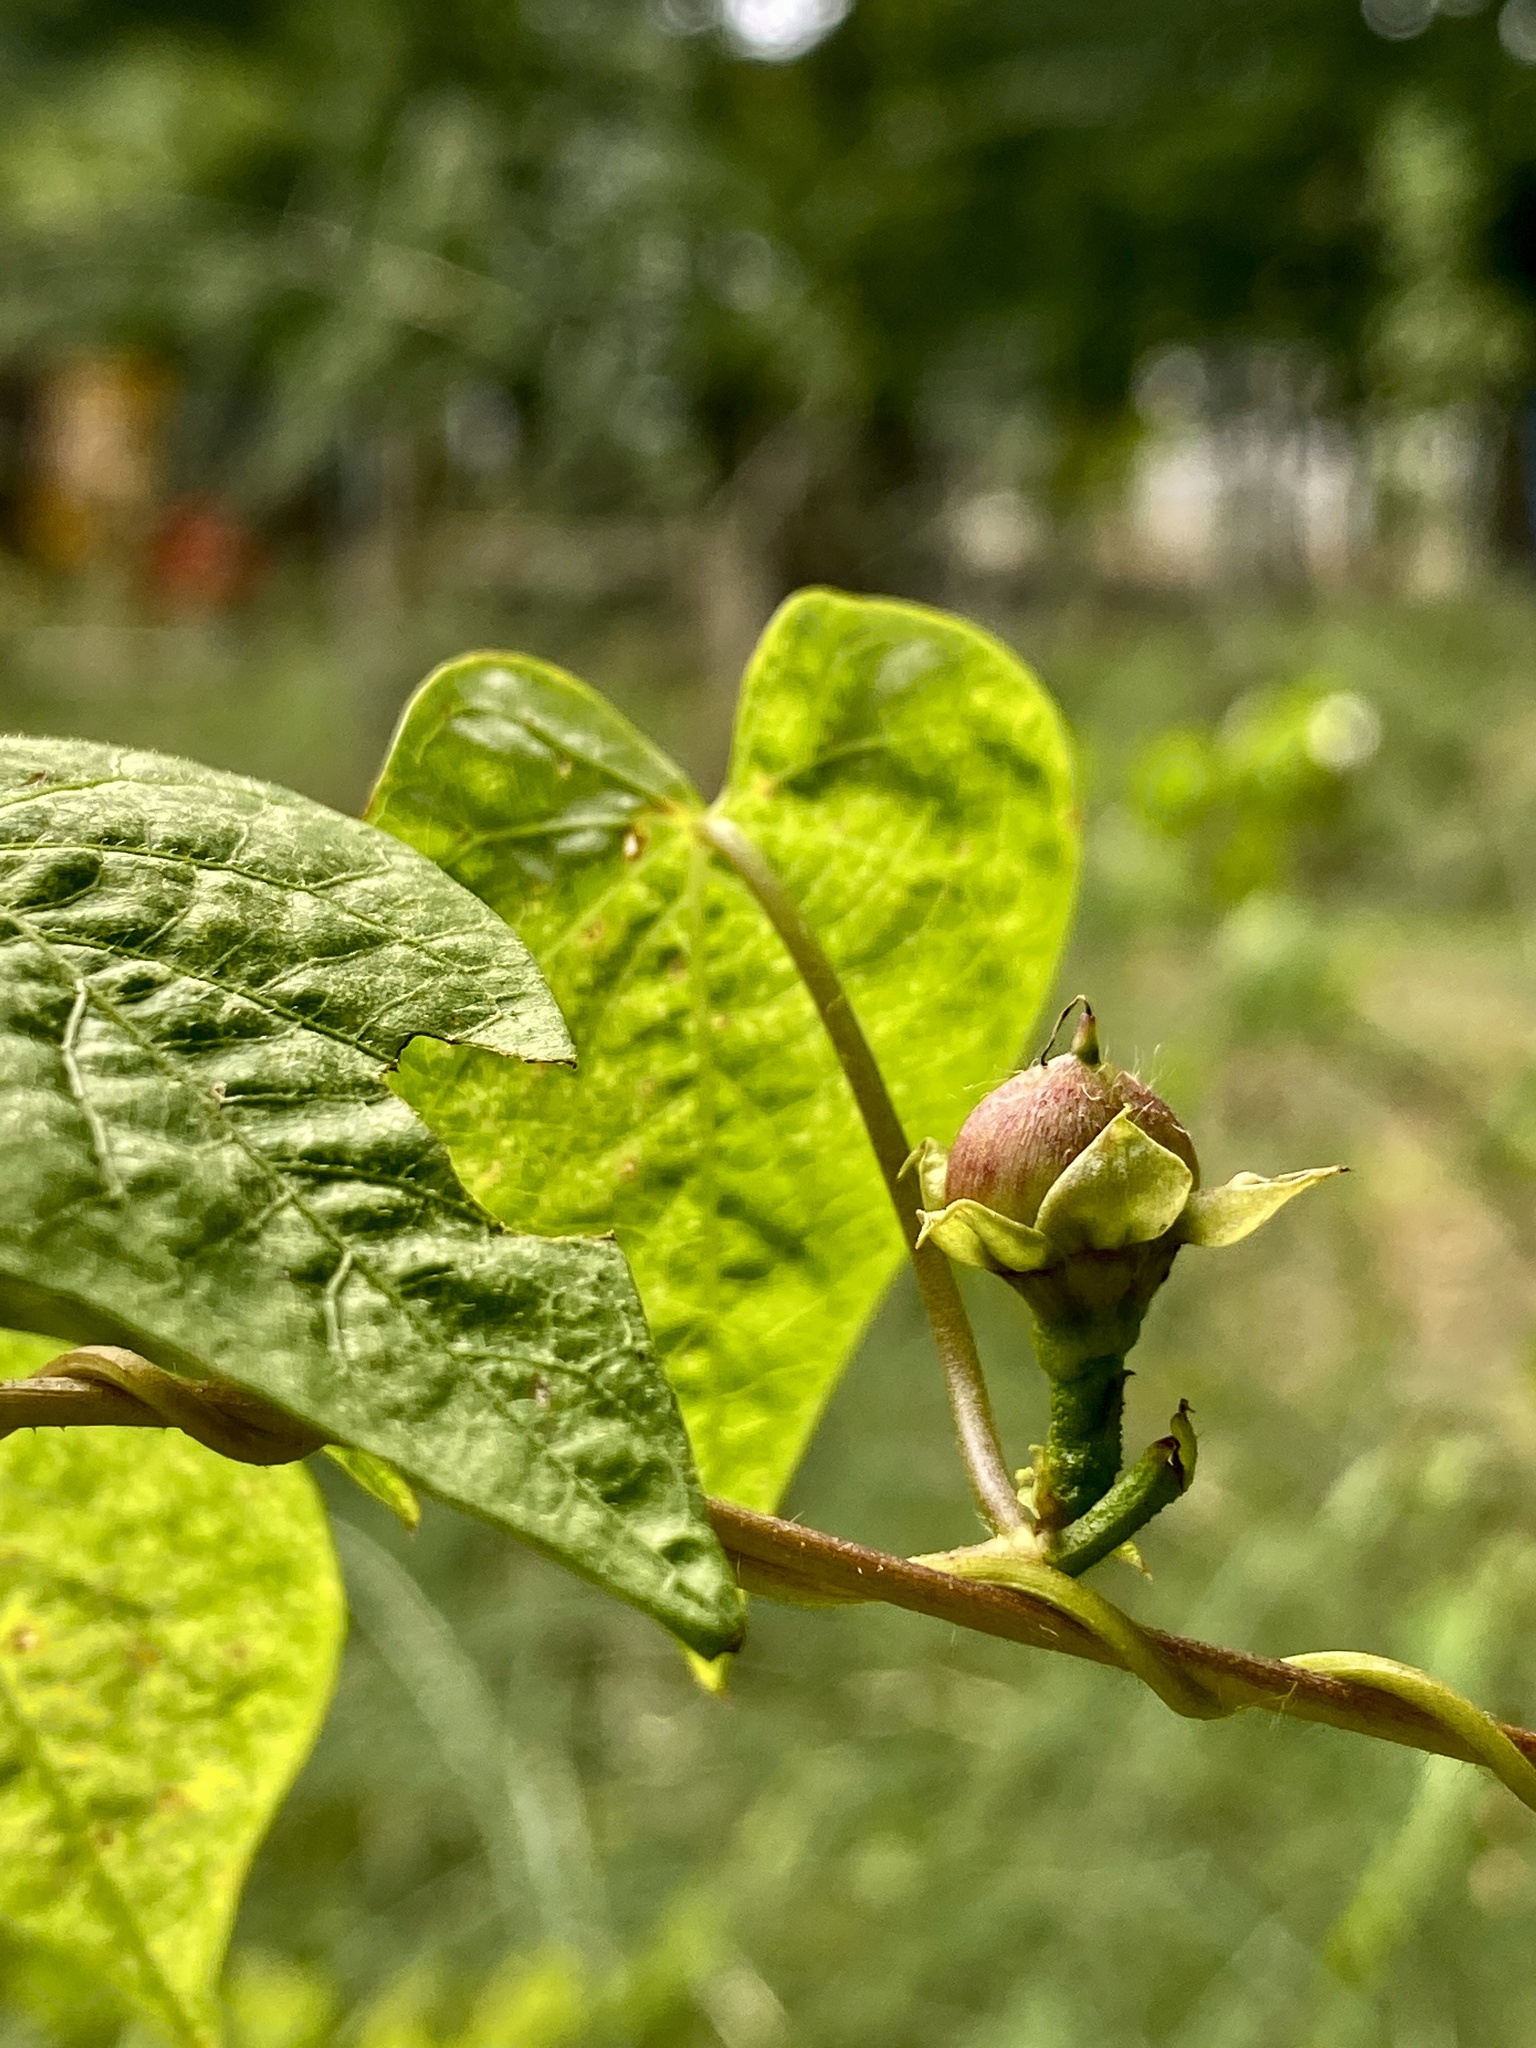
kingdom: Plantae
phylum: Tracheophyta
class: Magnoliopsida
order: Solanales
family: Convolvulaceae
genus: Ipomoea
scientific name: Ipomoea purpurea
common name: Common morning-glory
